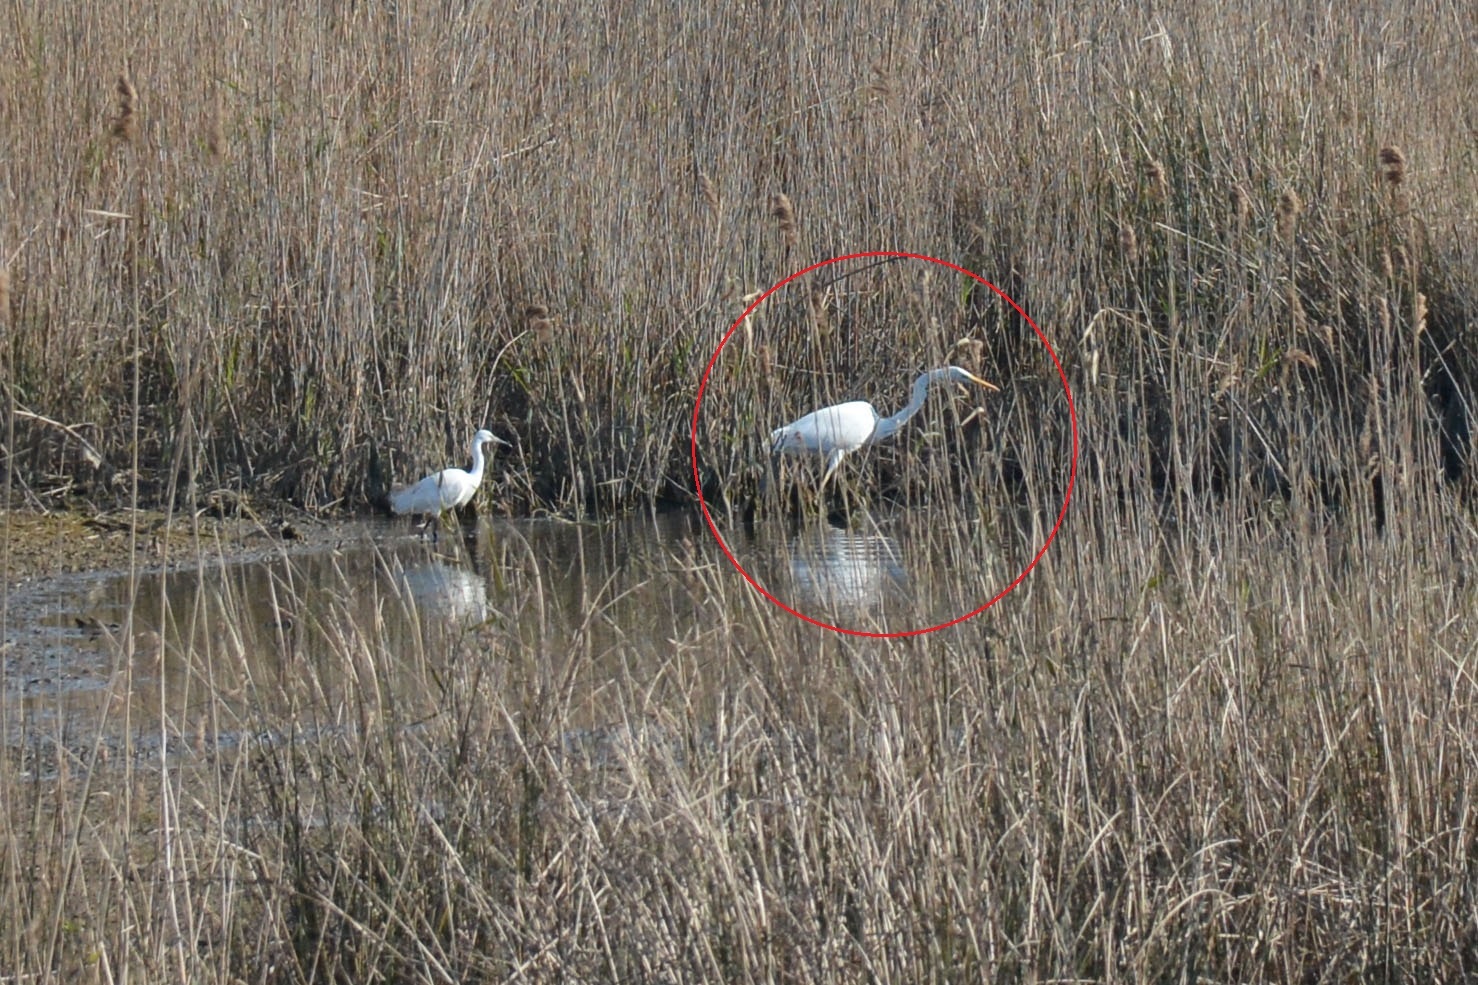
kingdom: Animalia
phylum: Chordata
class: Aves
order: Pelecaniformes
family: Ardeidae
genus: Ardea
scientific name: Ardea alba
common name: Great egret
